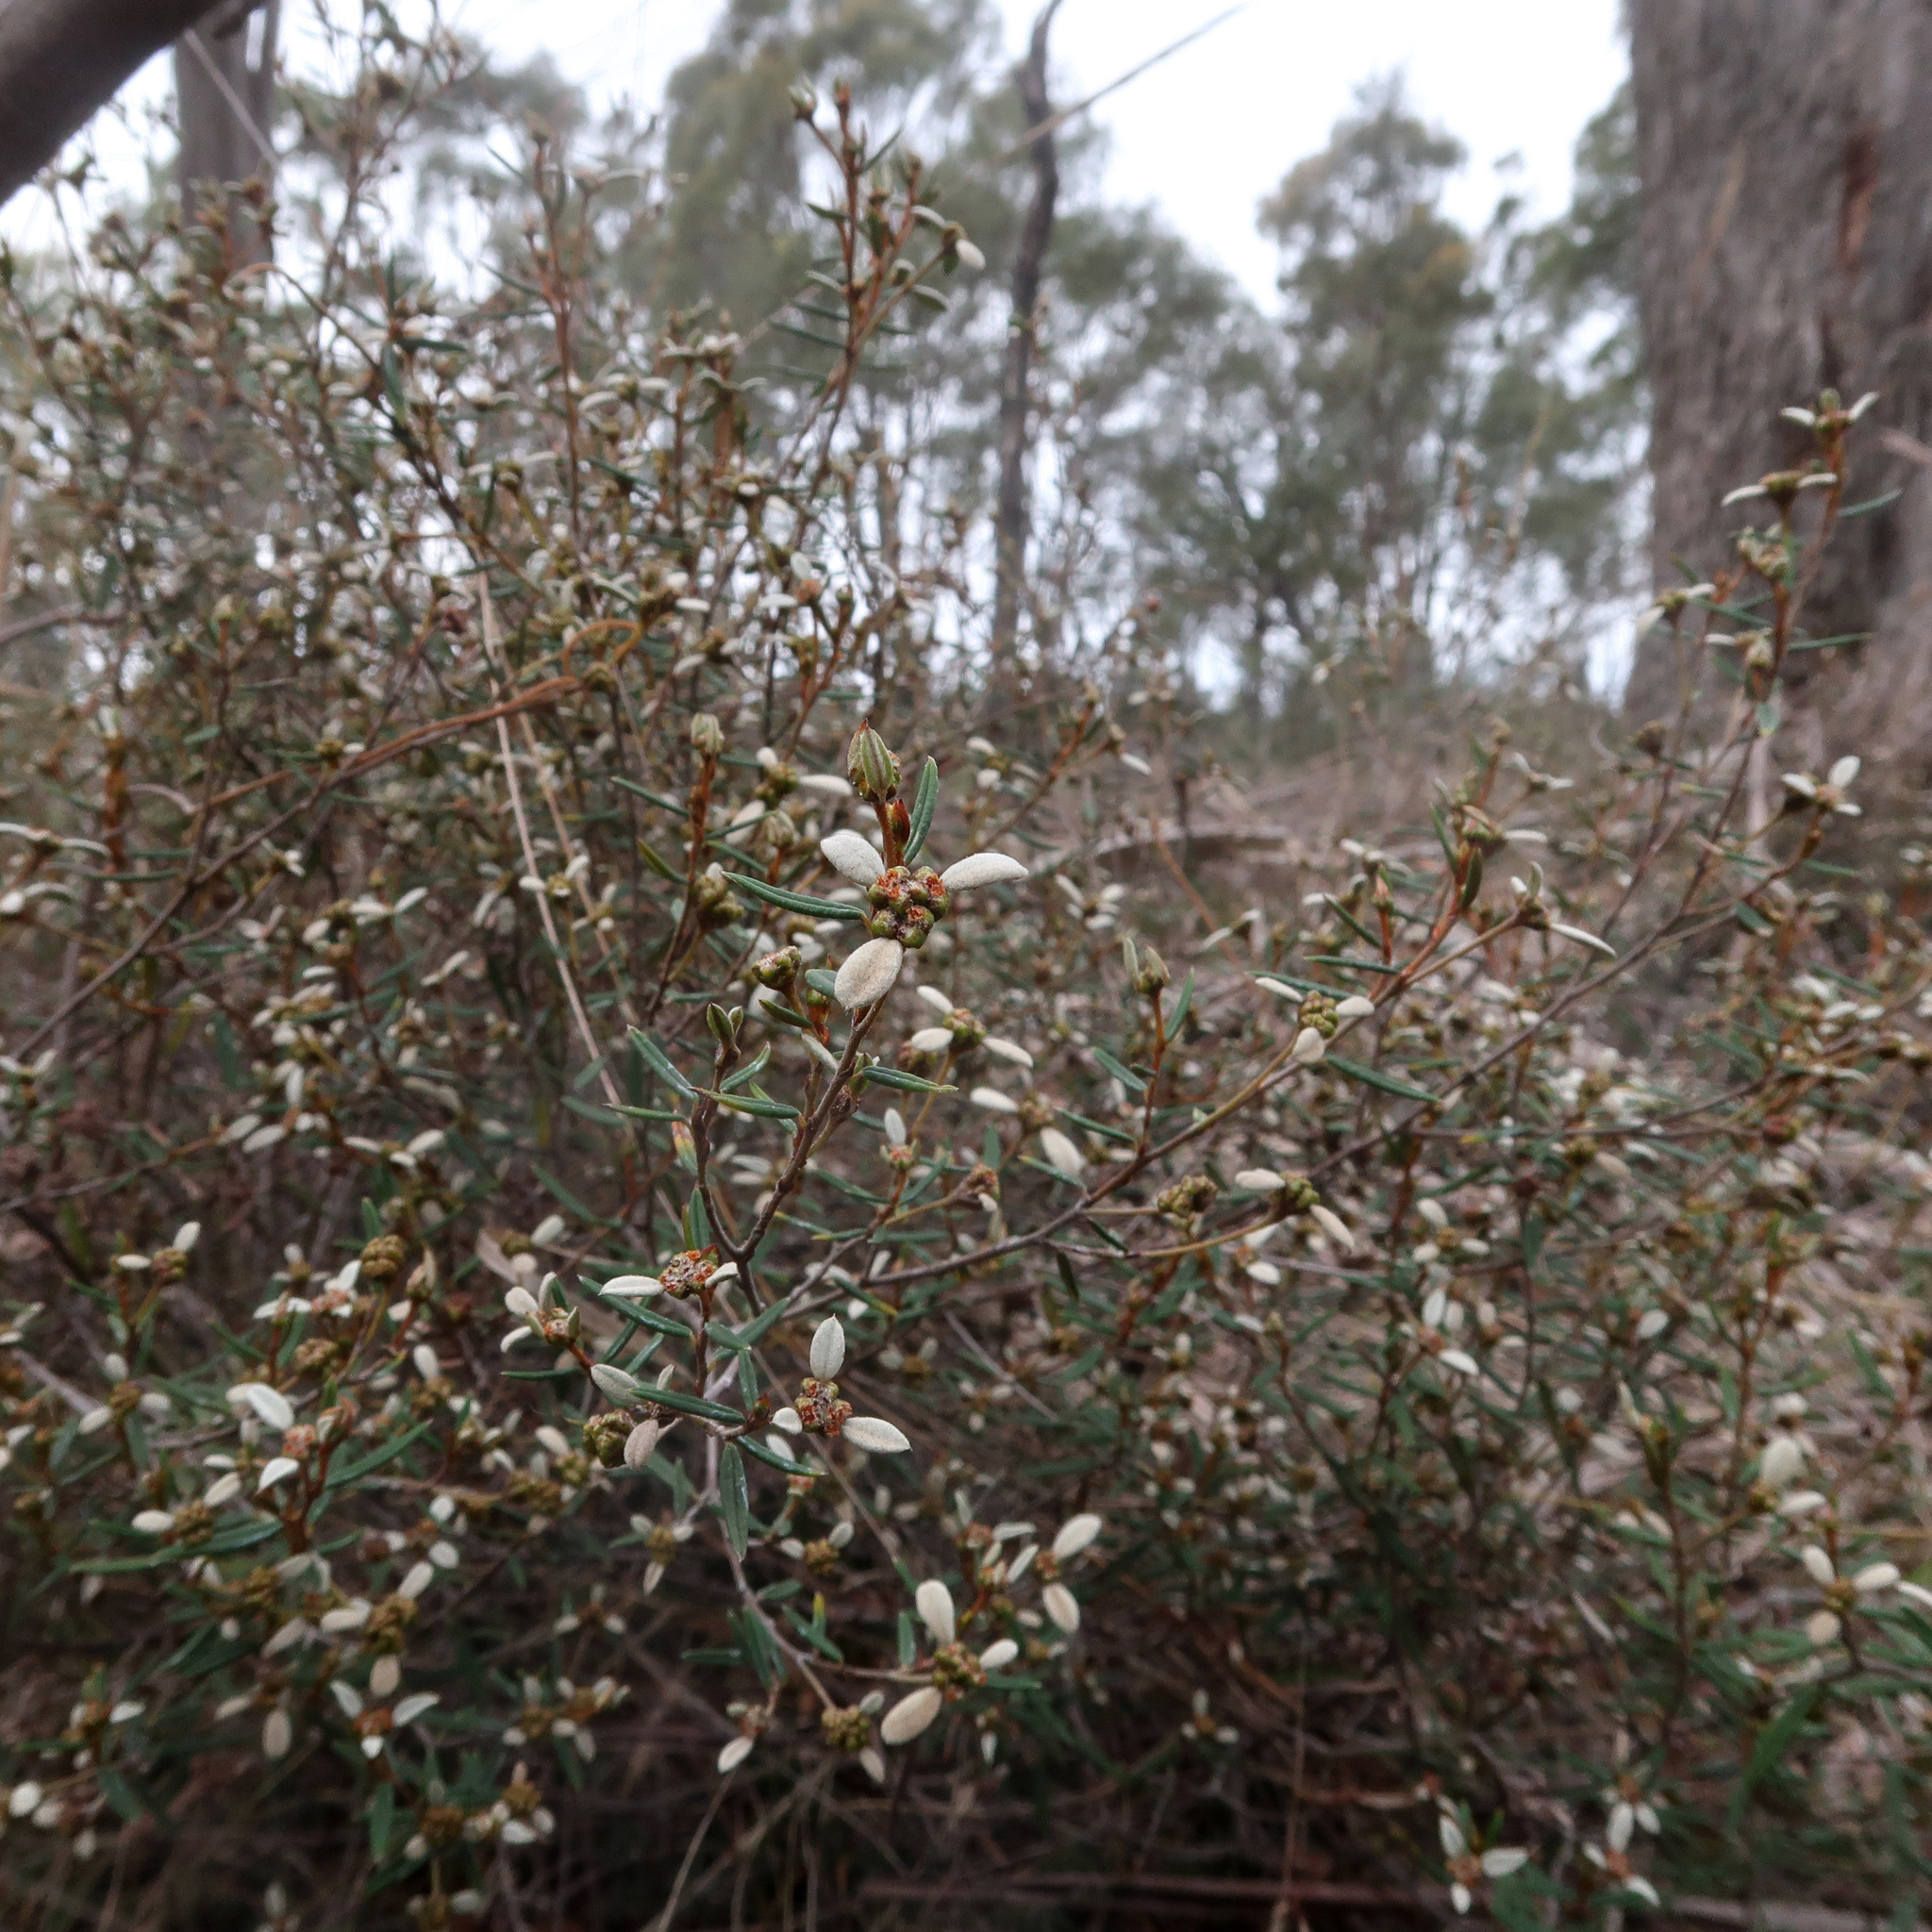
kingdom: Plantae
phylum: Tracheophyta
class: Magnoliopsida
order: Rosales
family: Rhamnaceae
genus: Spyridium
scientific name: Spyridium vexilliferum
